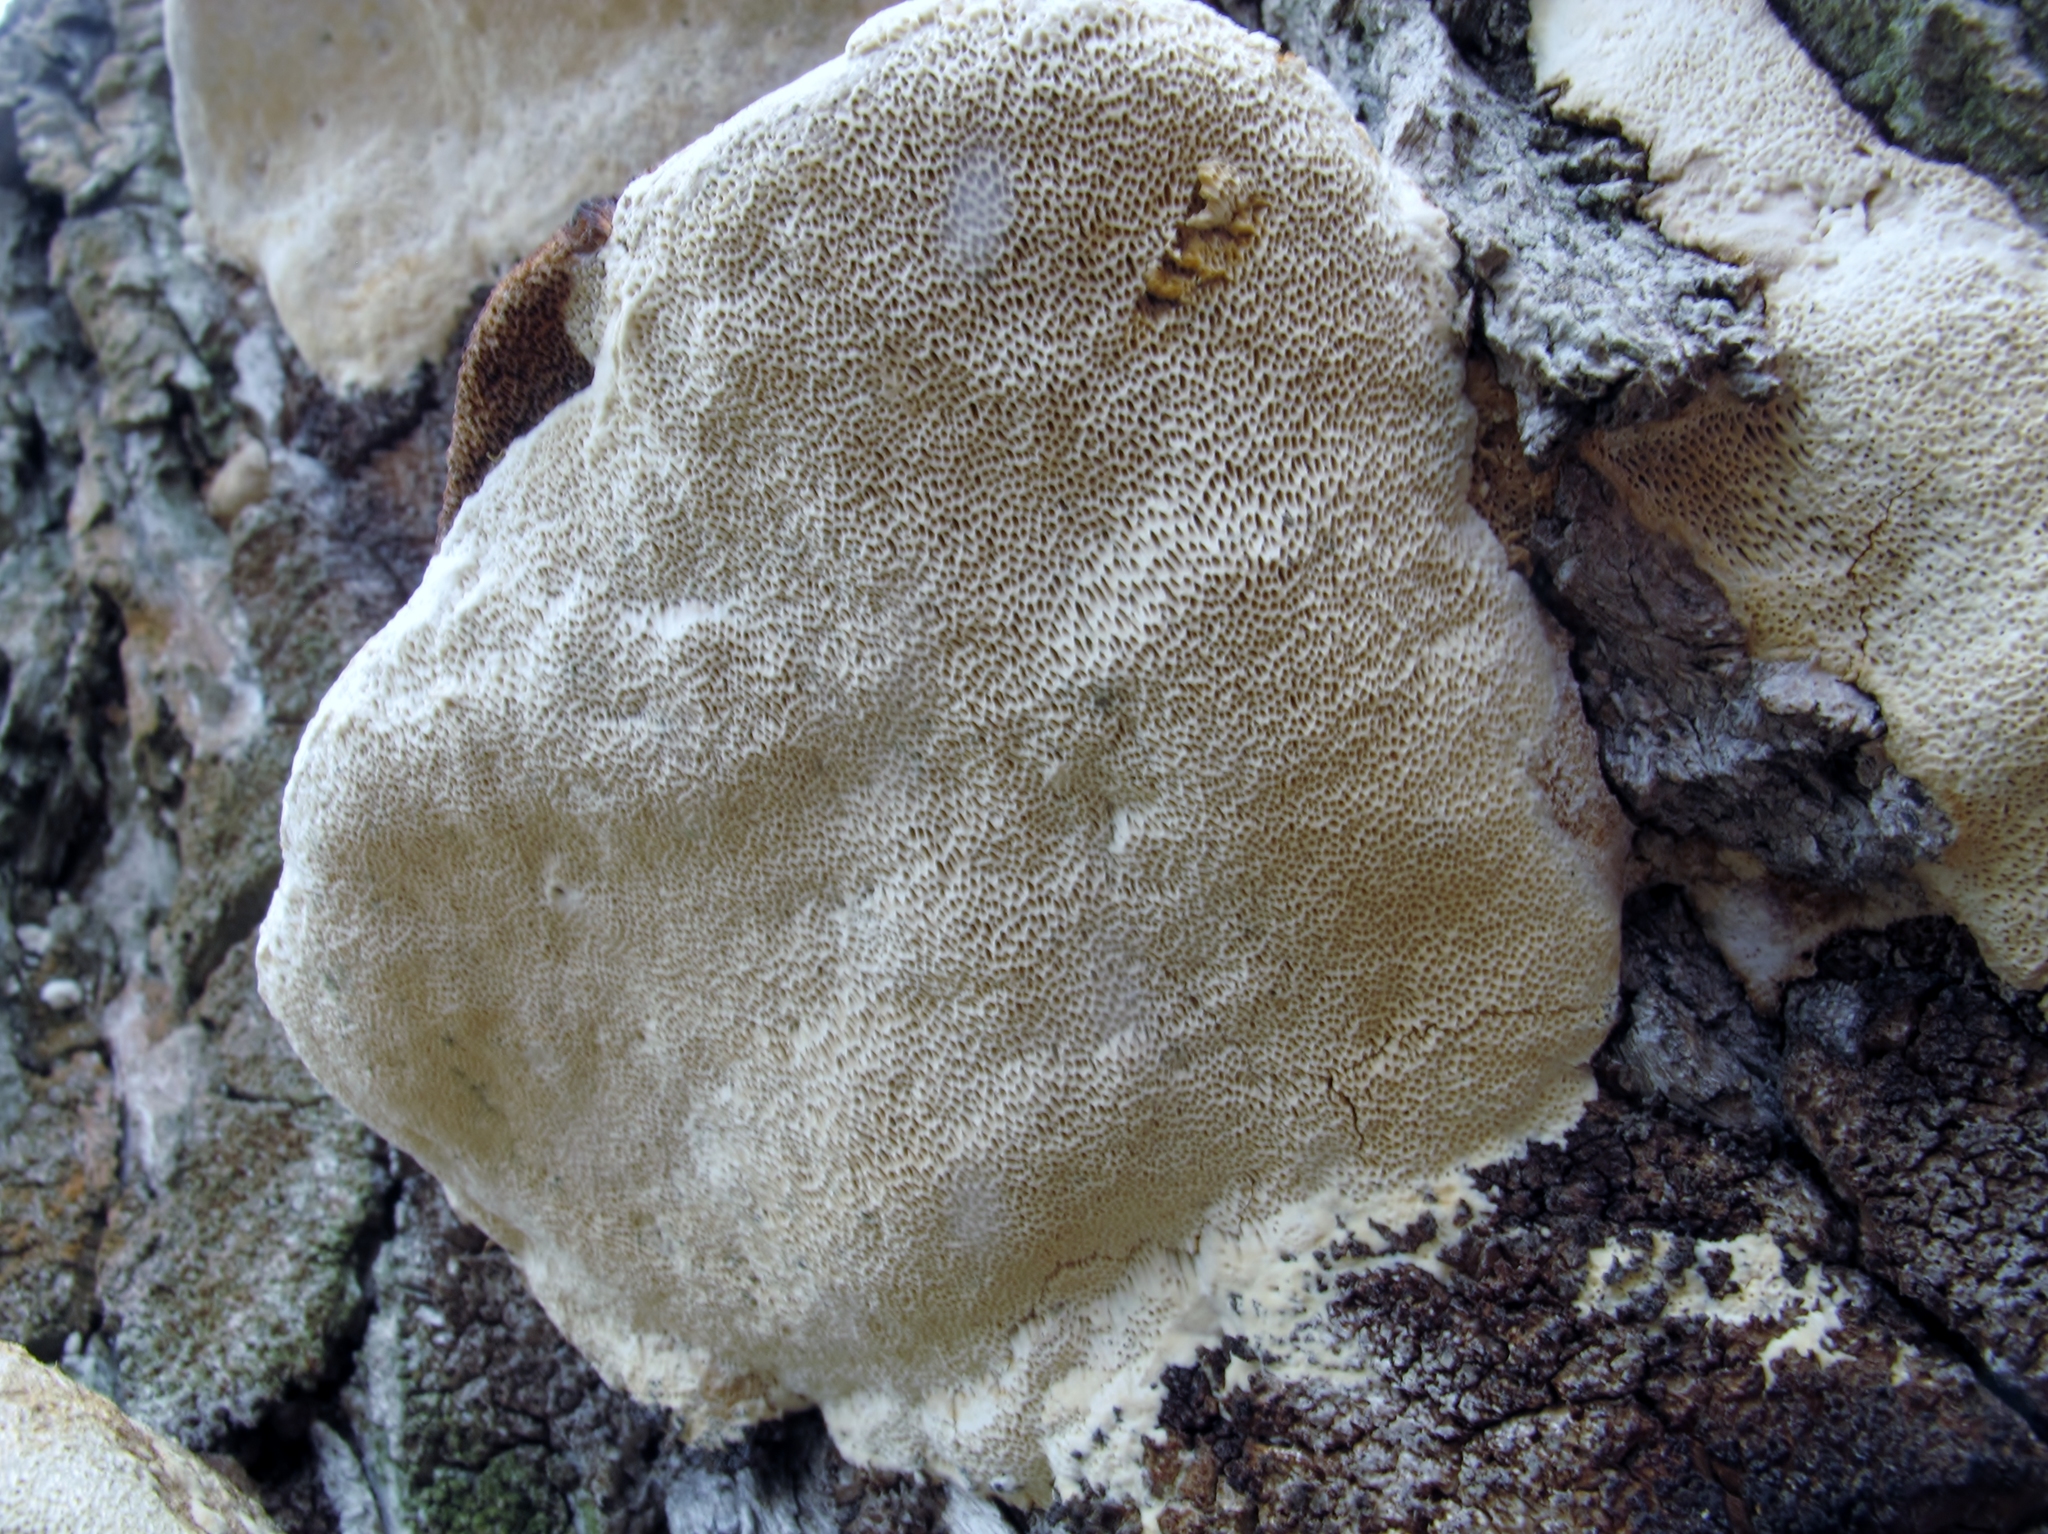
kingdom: Fungi
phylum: Basidiomycota
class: Agaricomycetes
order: Polyporales
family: Polyporaceae
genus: Perenniporia
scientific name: Perenniporia fraxinophila
